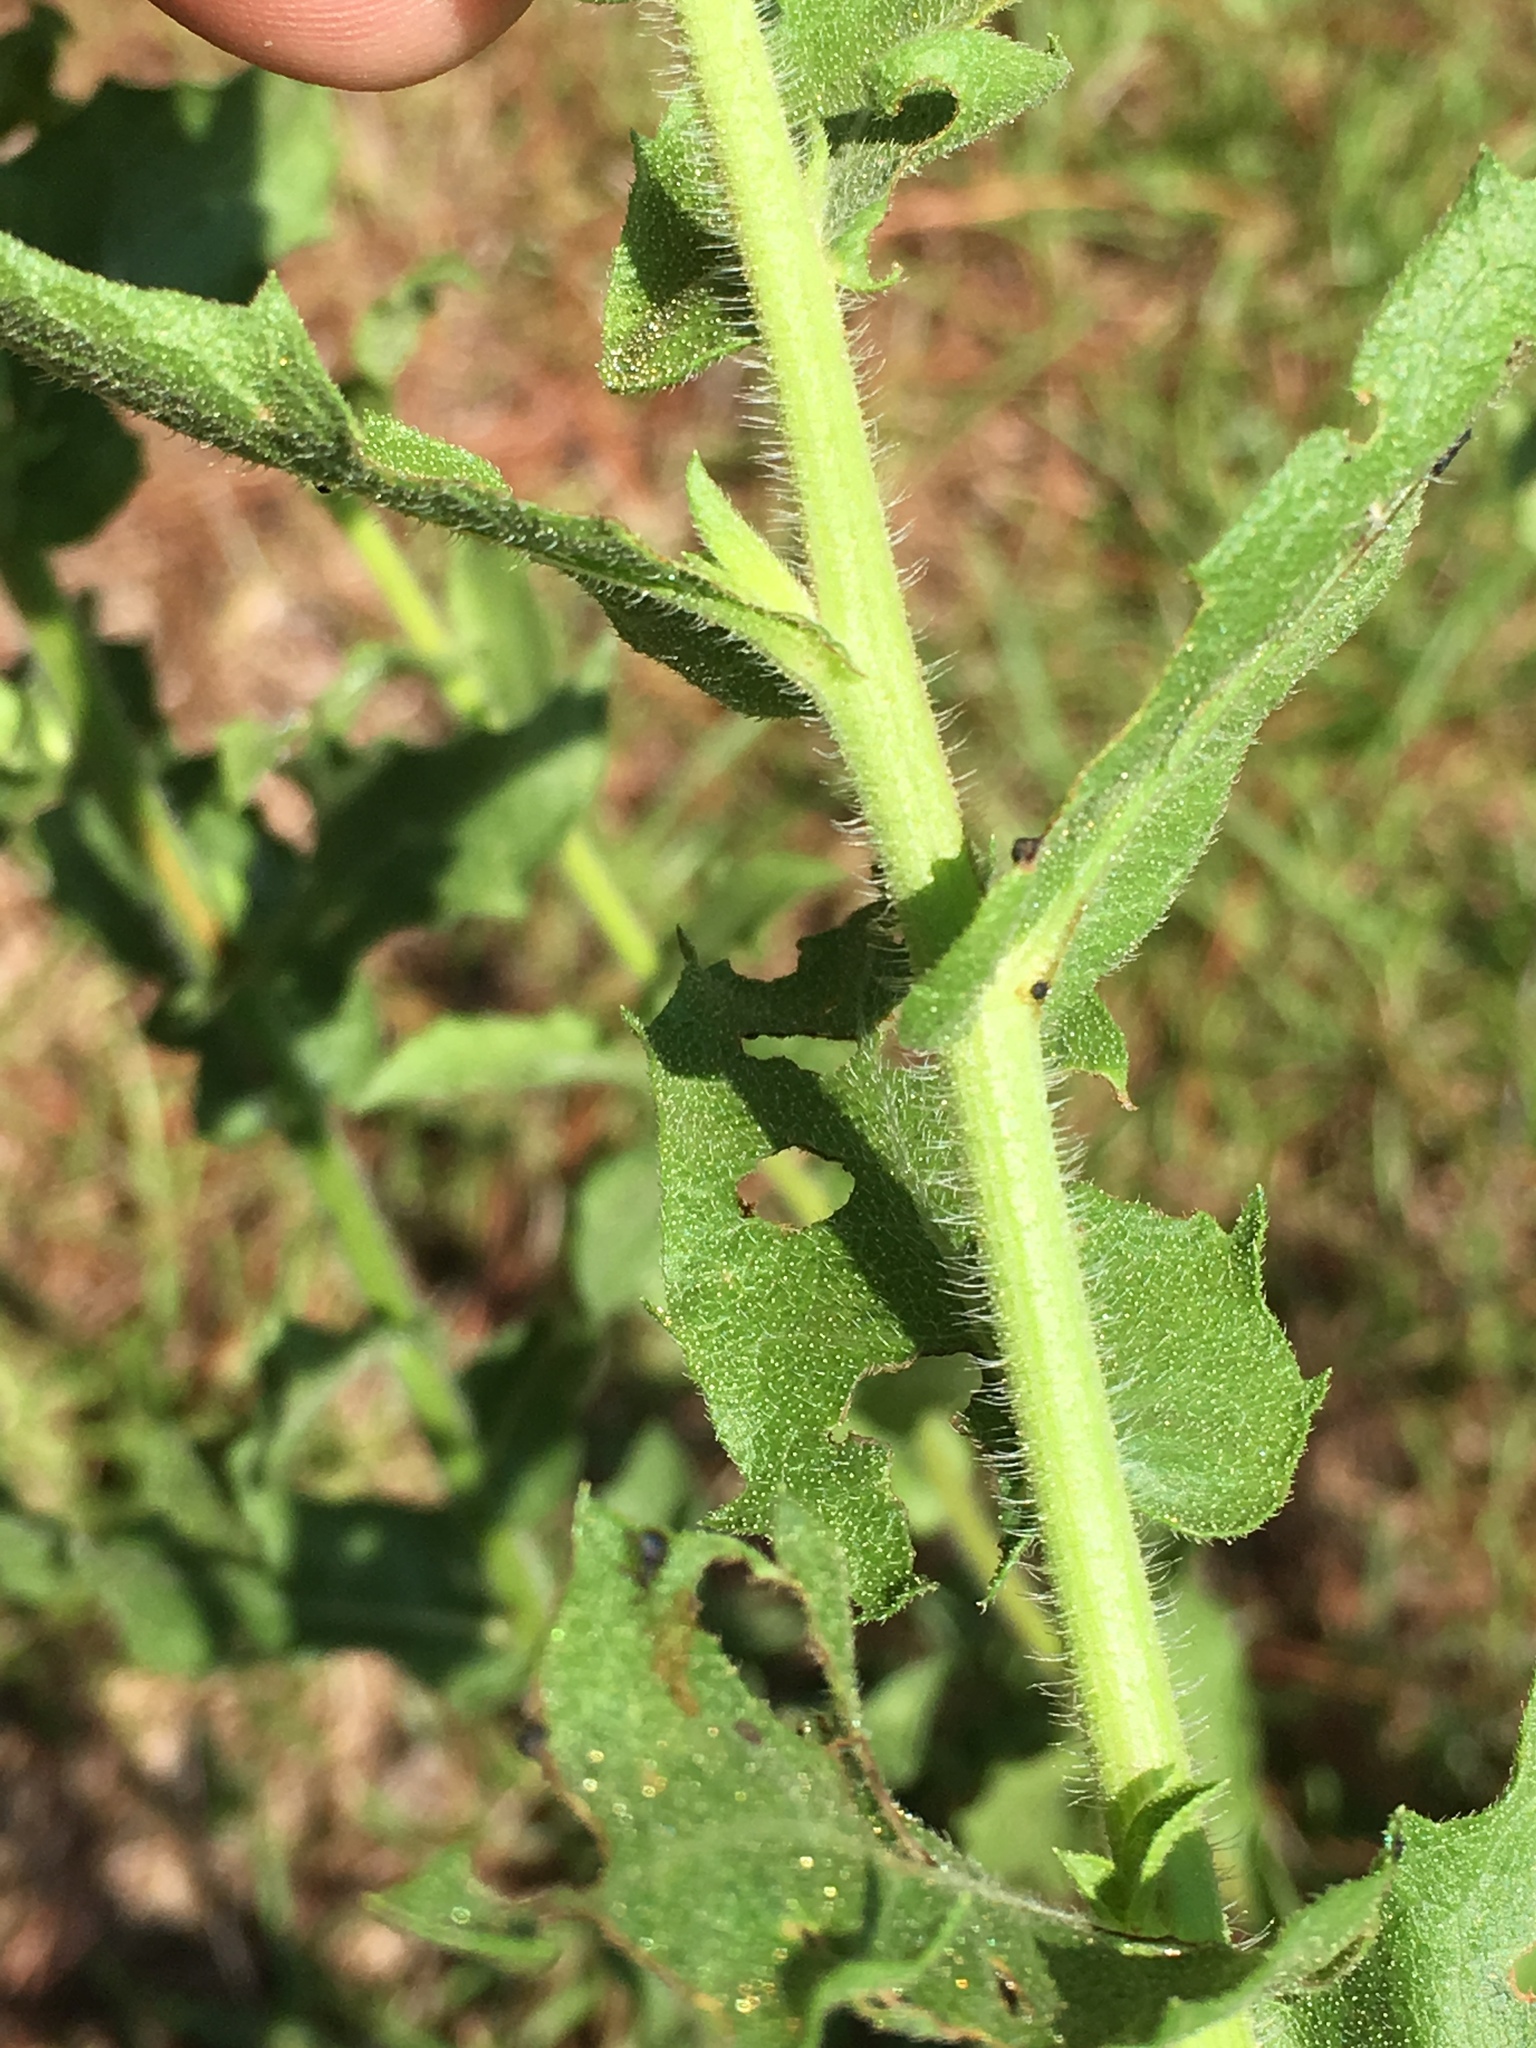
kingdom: Plantae
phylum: Tracheophyta
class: Magnoliopsida
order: Asterales
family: Asteraceae
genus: Heterotheca
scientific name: Heterotheca subaxillaris
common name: Camphorweed
